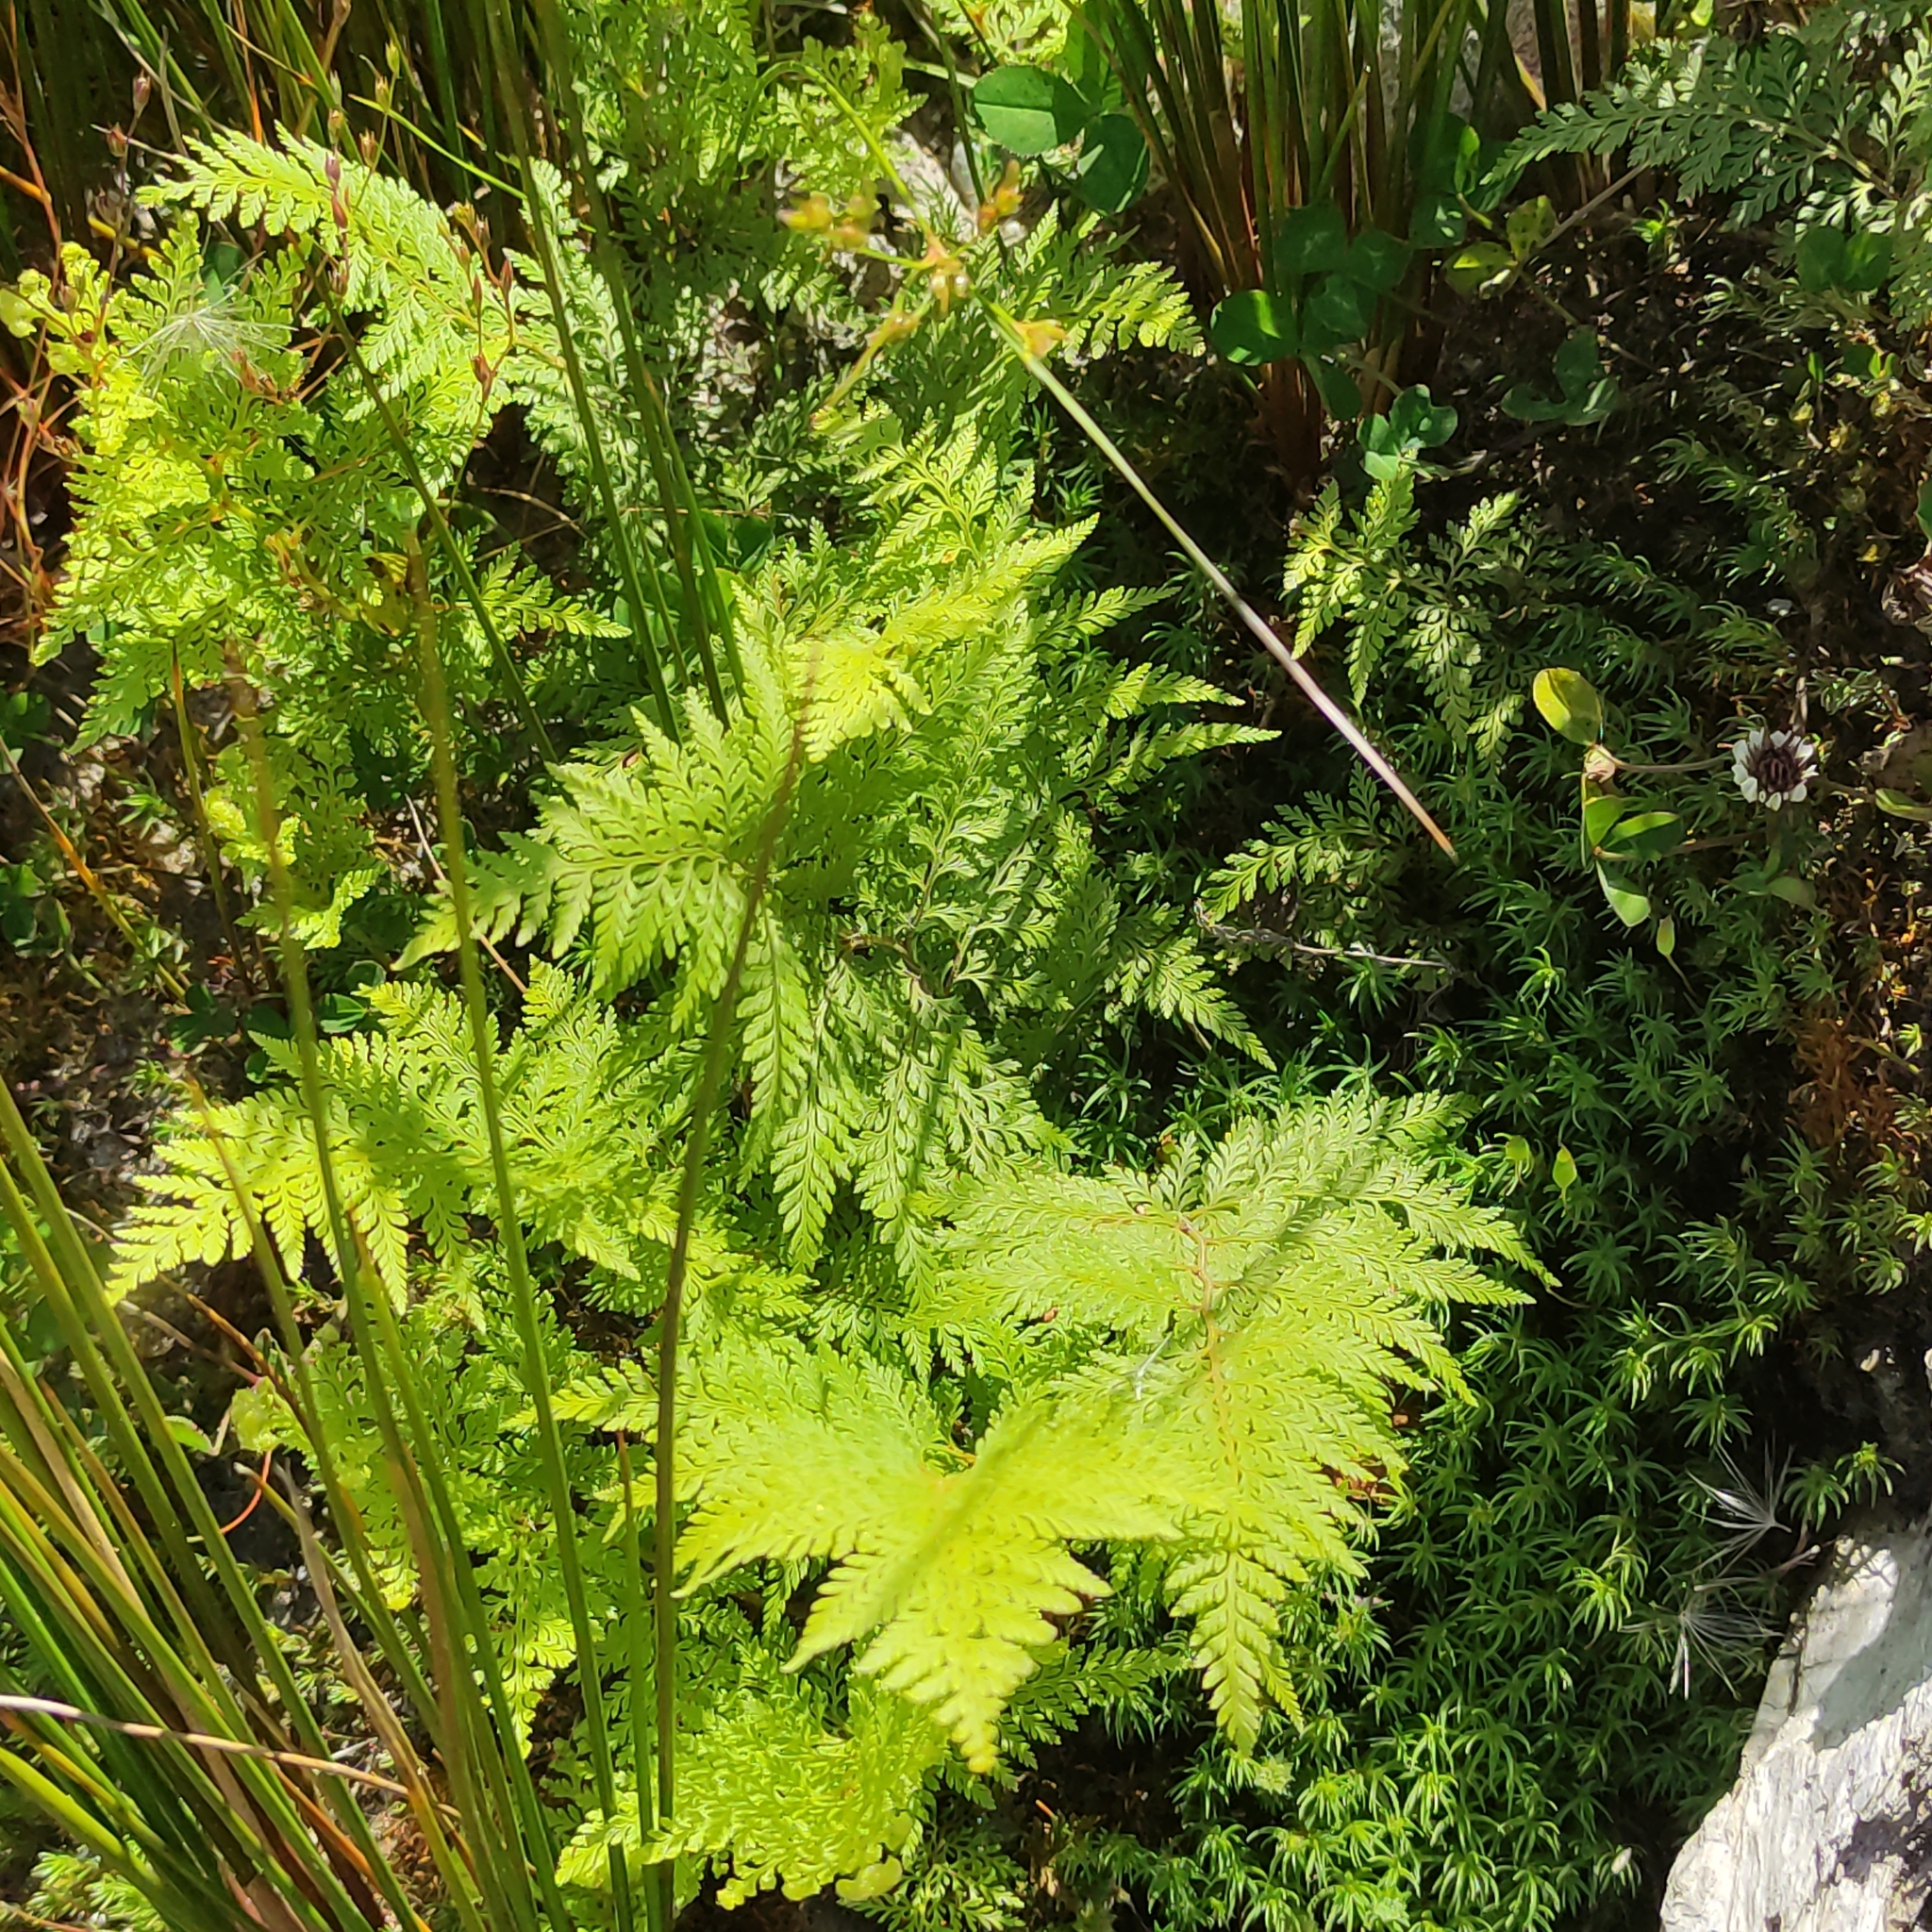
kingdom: Plantae
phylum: Tracheophyta
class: Polypodiopsida
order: Polypodiales
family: Dennstaedtiaceae
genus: Paesia
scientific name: Paesia scaberula
